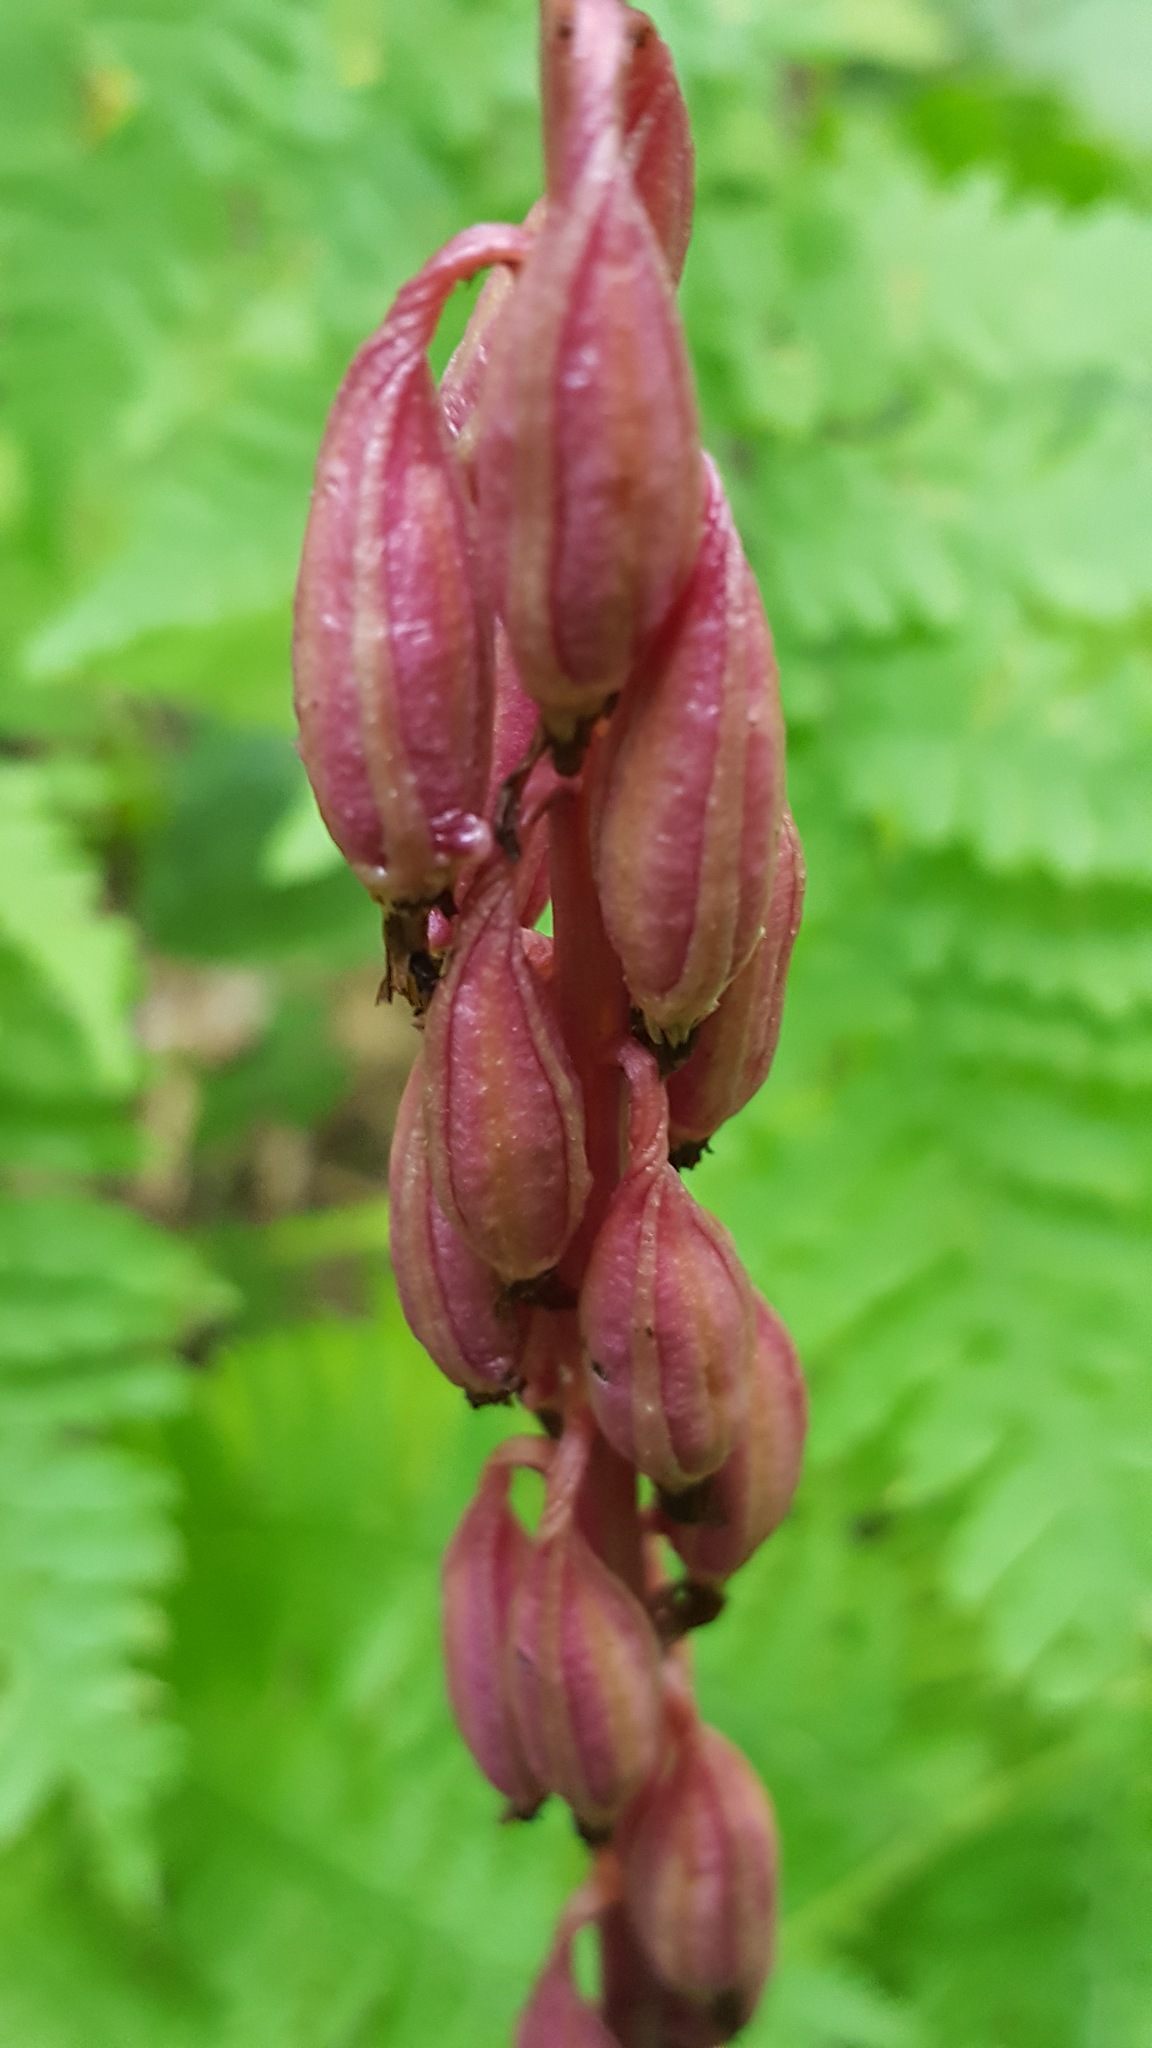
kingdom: Plantae
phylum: Tracheophyta
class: Liliopsida
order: Asparagales
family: Orchidaceae
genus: Corallorhiza
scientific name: Corallorhiza maculata
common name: Spotted coralroot
